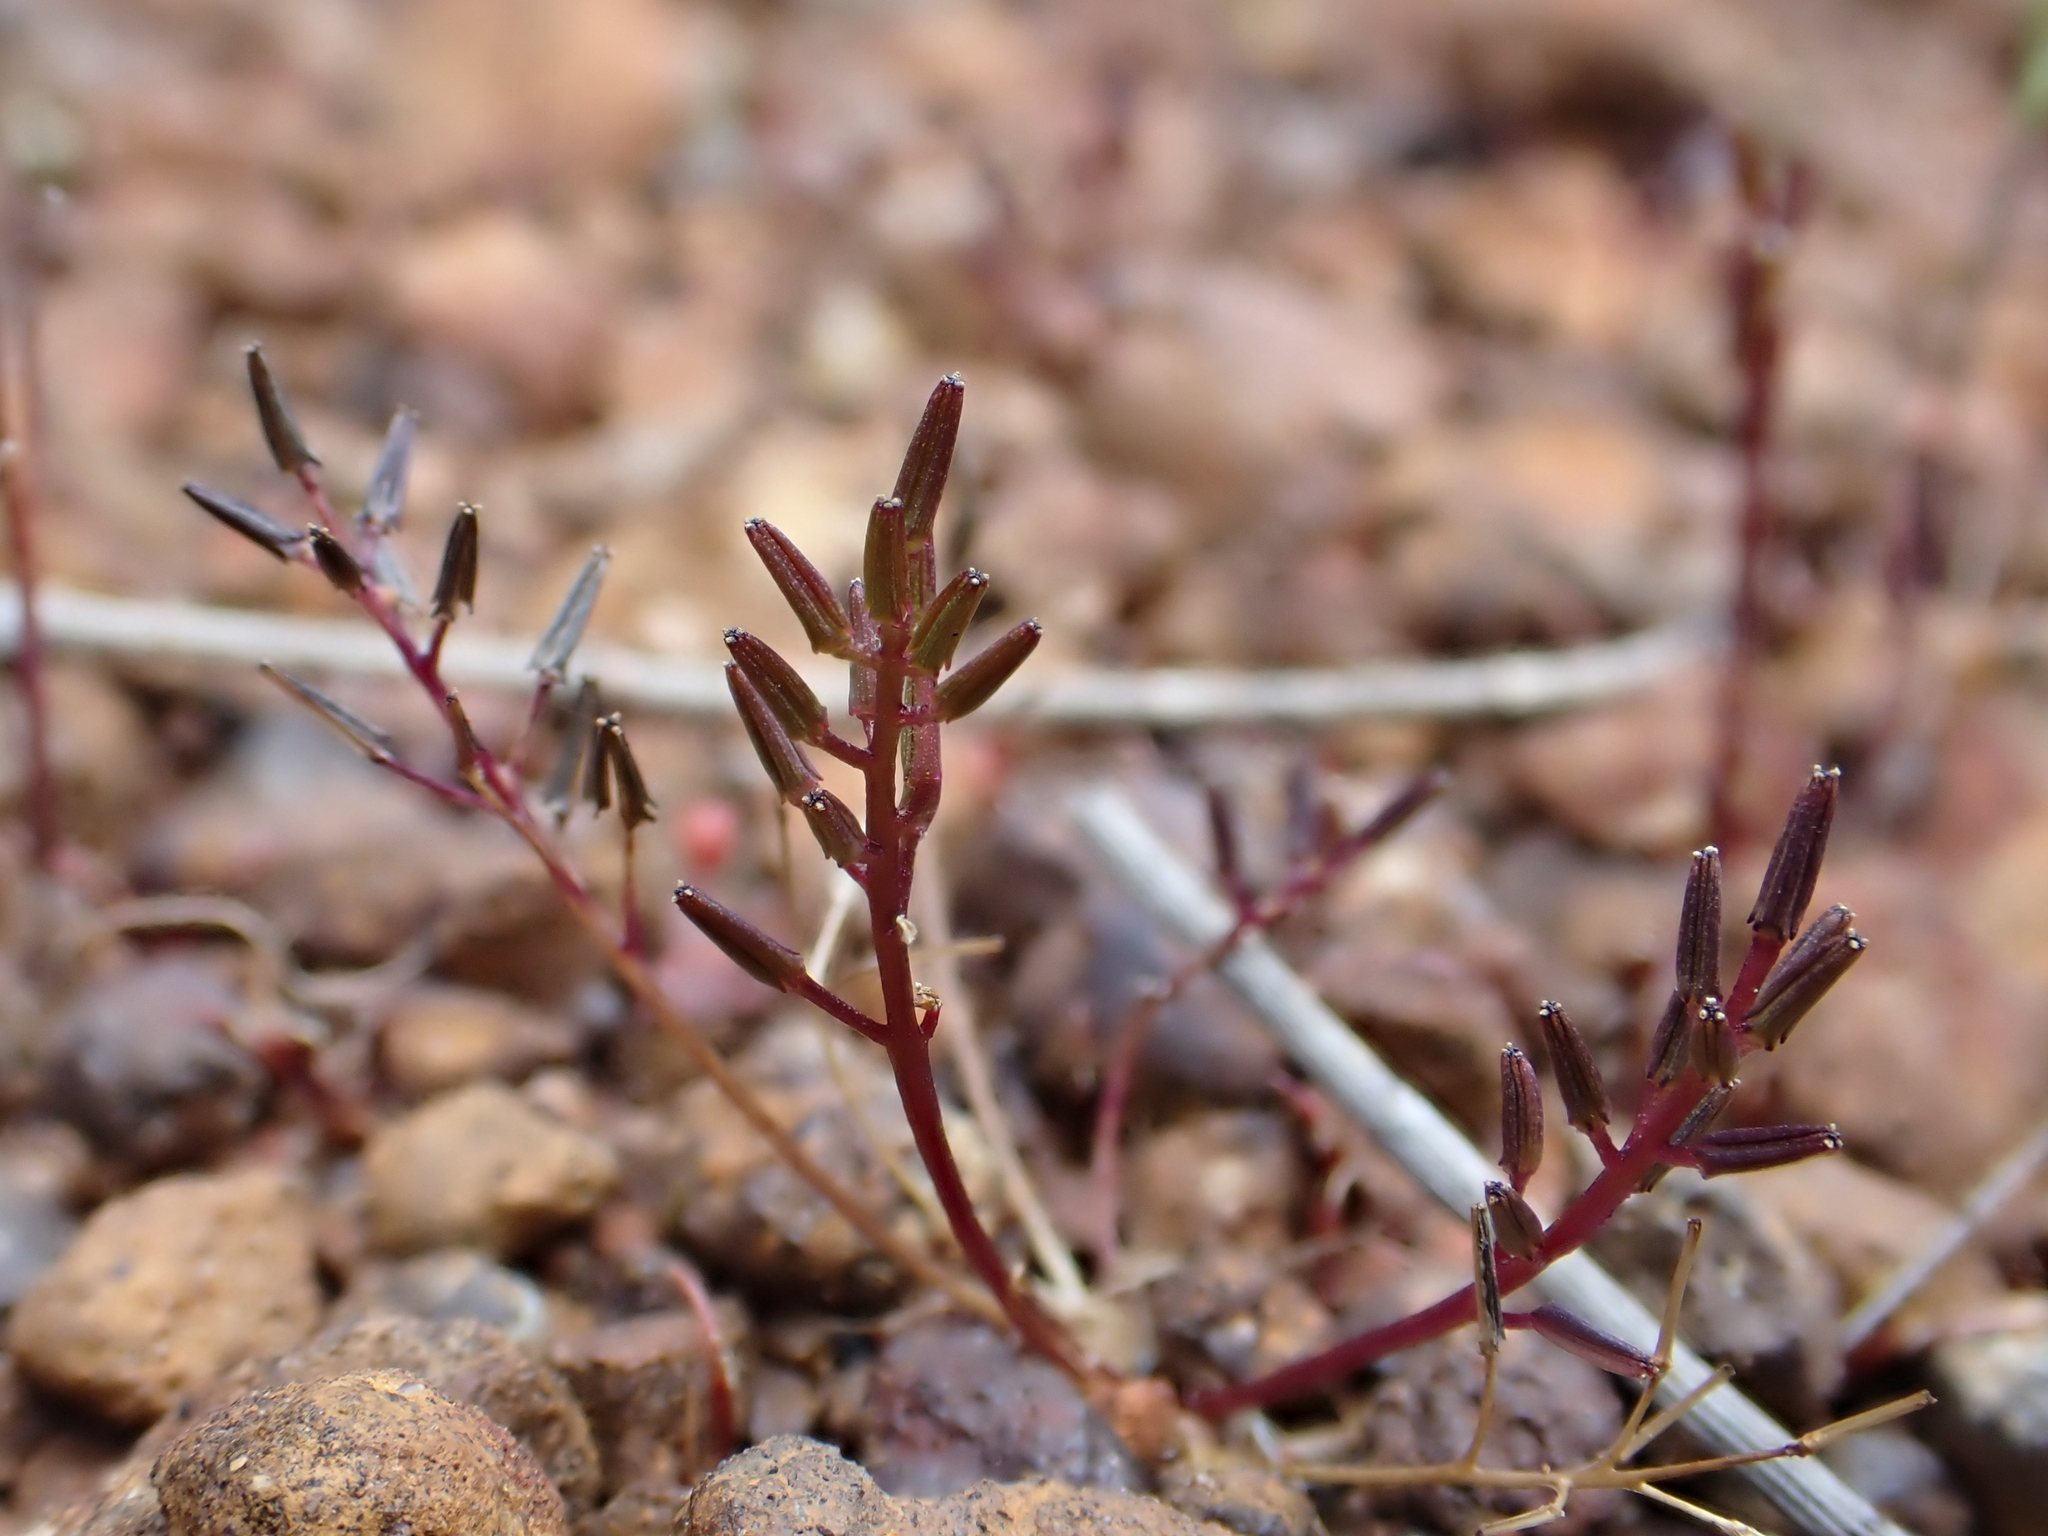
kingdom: Plantae
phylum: Tracheophyta
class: Liliopsida
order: Alismatales
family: Juncaginaceae
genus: Triglochin
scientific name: Triglochin nana
